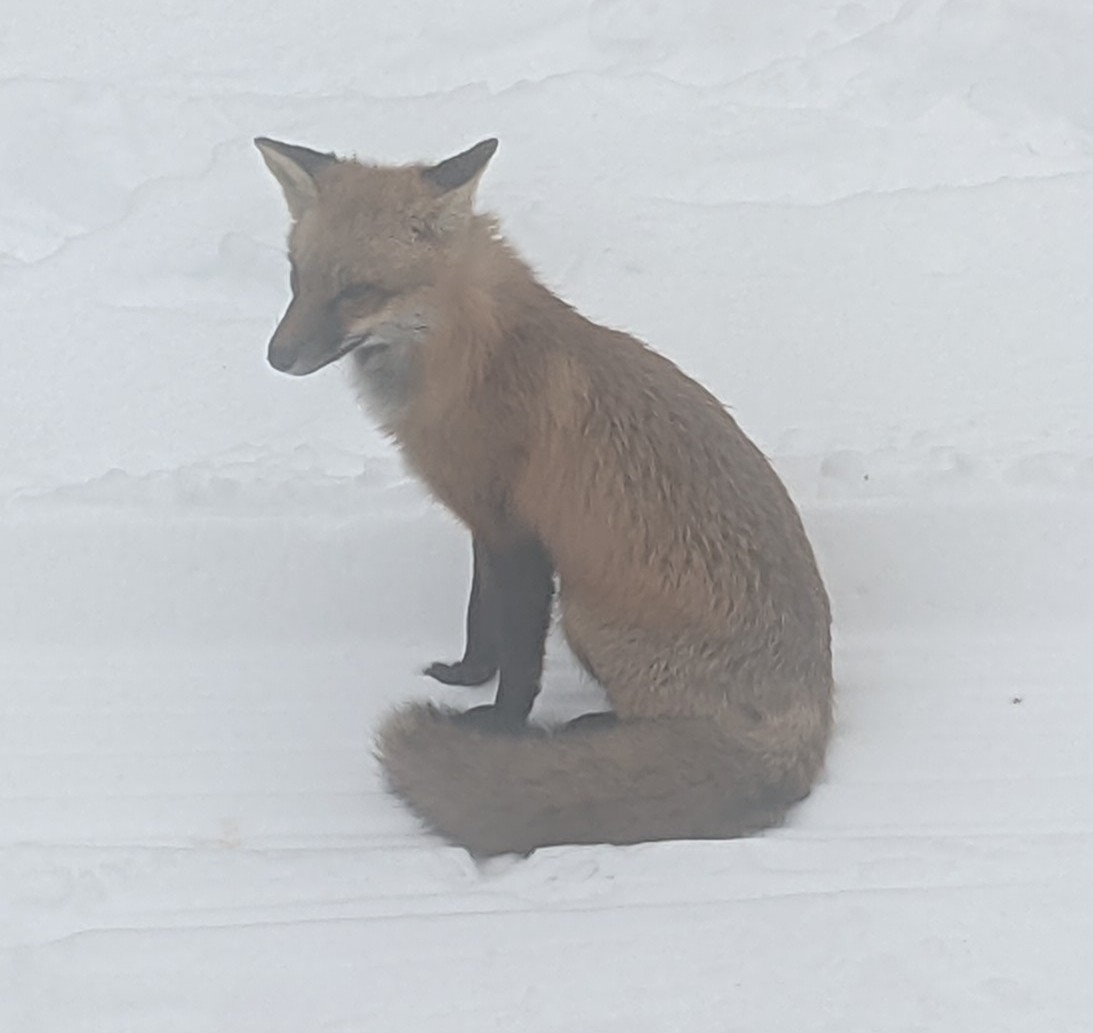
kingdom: Animalia
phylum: Chordata
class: Mammalia
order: Carnivora
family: Canidae
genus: Vulpes
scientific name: Vulpes vulpes
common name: Red fox
